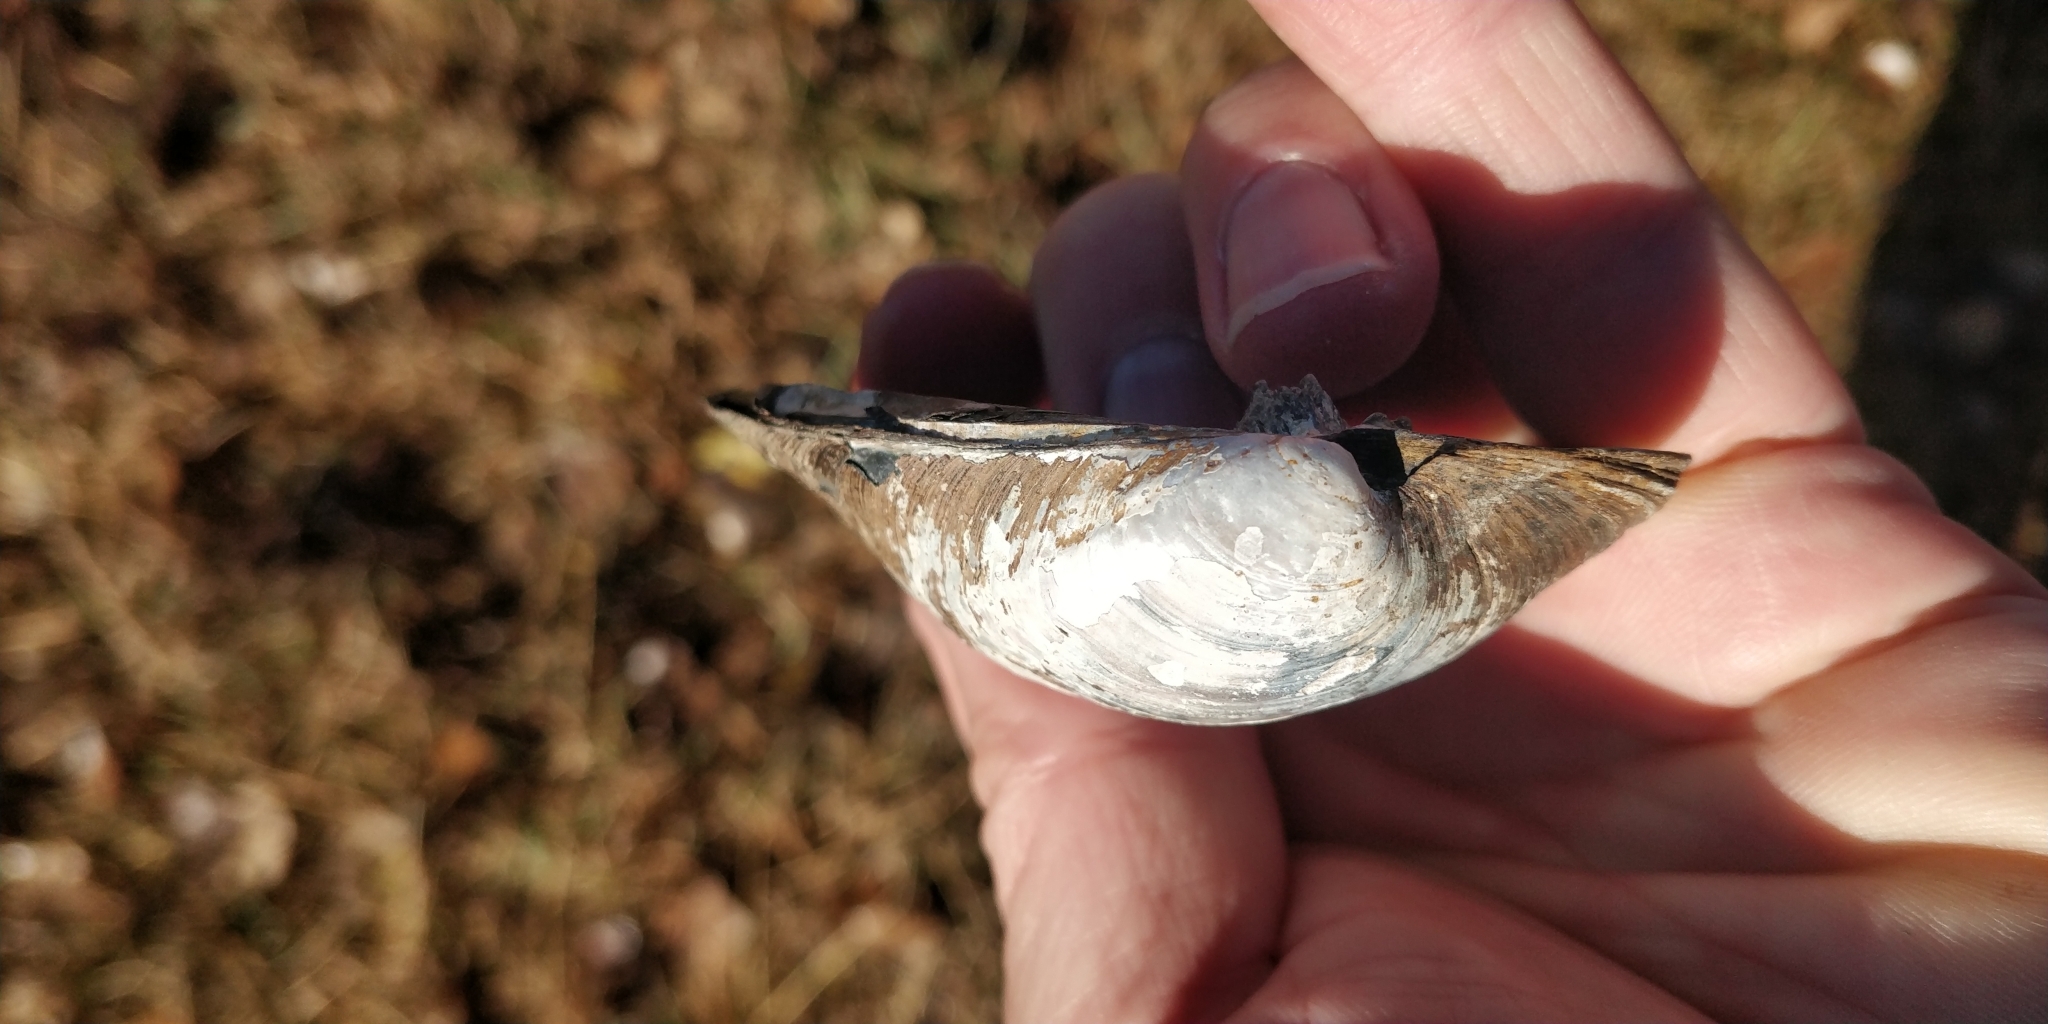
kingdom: Animalia
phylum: Mollusca
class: Bivalvia
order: Unionida
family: Unionidae
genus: Amblema
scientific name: Amblema plicata
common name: Threeridge
